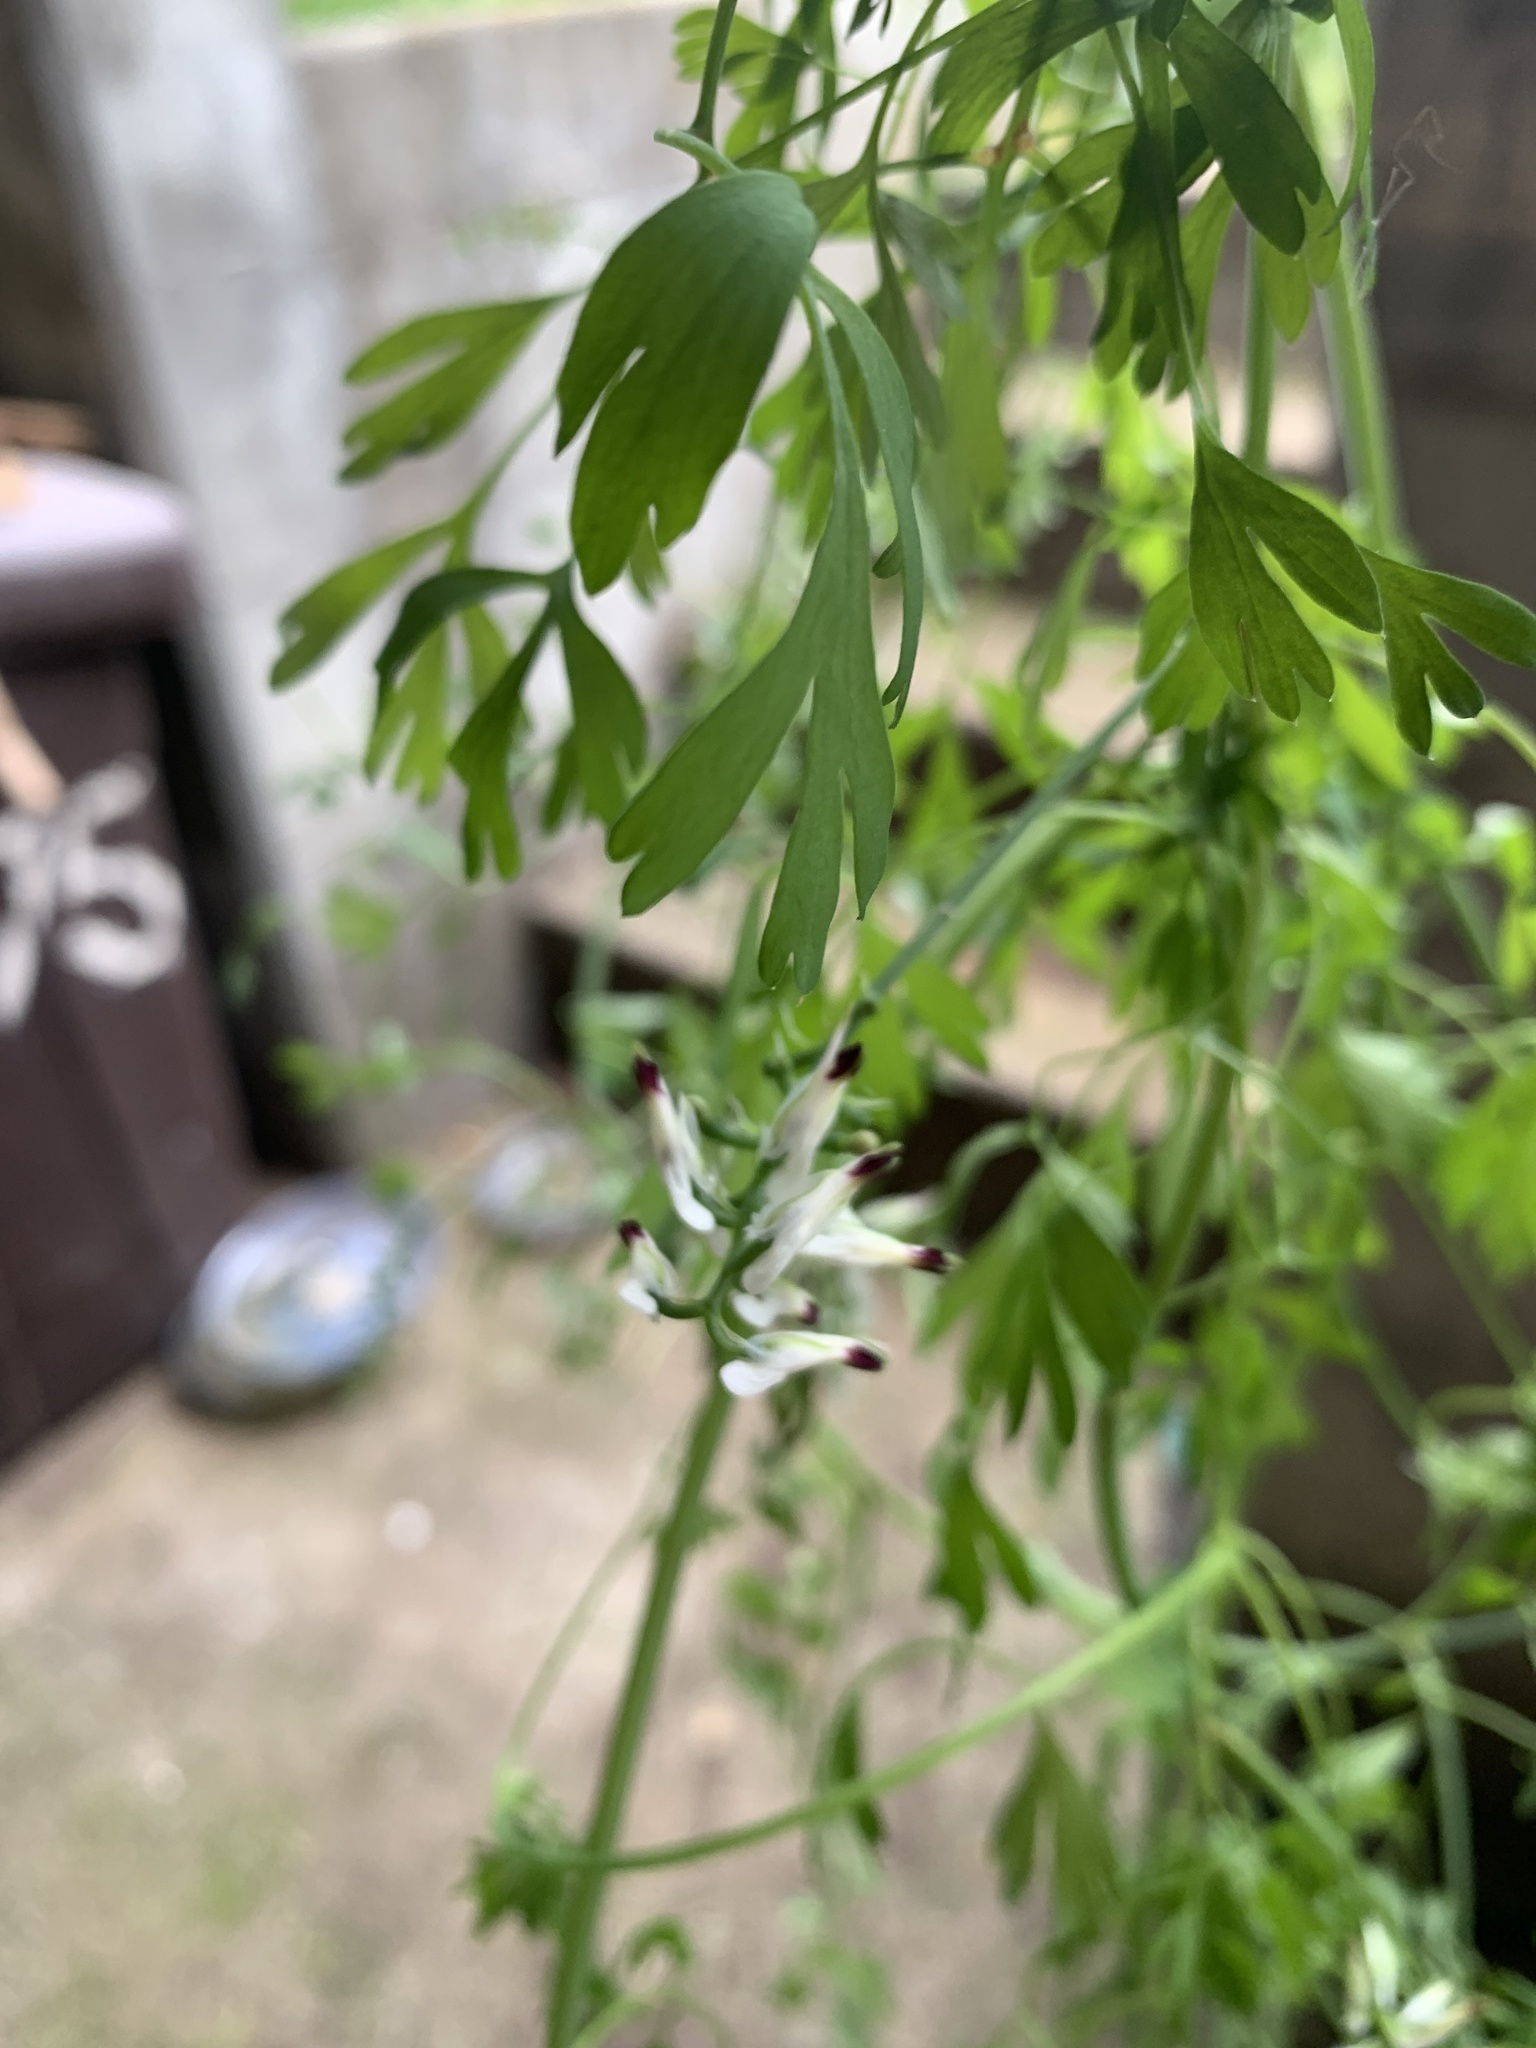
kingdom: Plantae
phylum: Tracheophyta
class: Magnoliopsida
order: Ranunculales
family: Papaveraceae
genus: Fumaria
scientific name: Fumaria capreolata
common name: White ramping-fumitory
